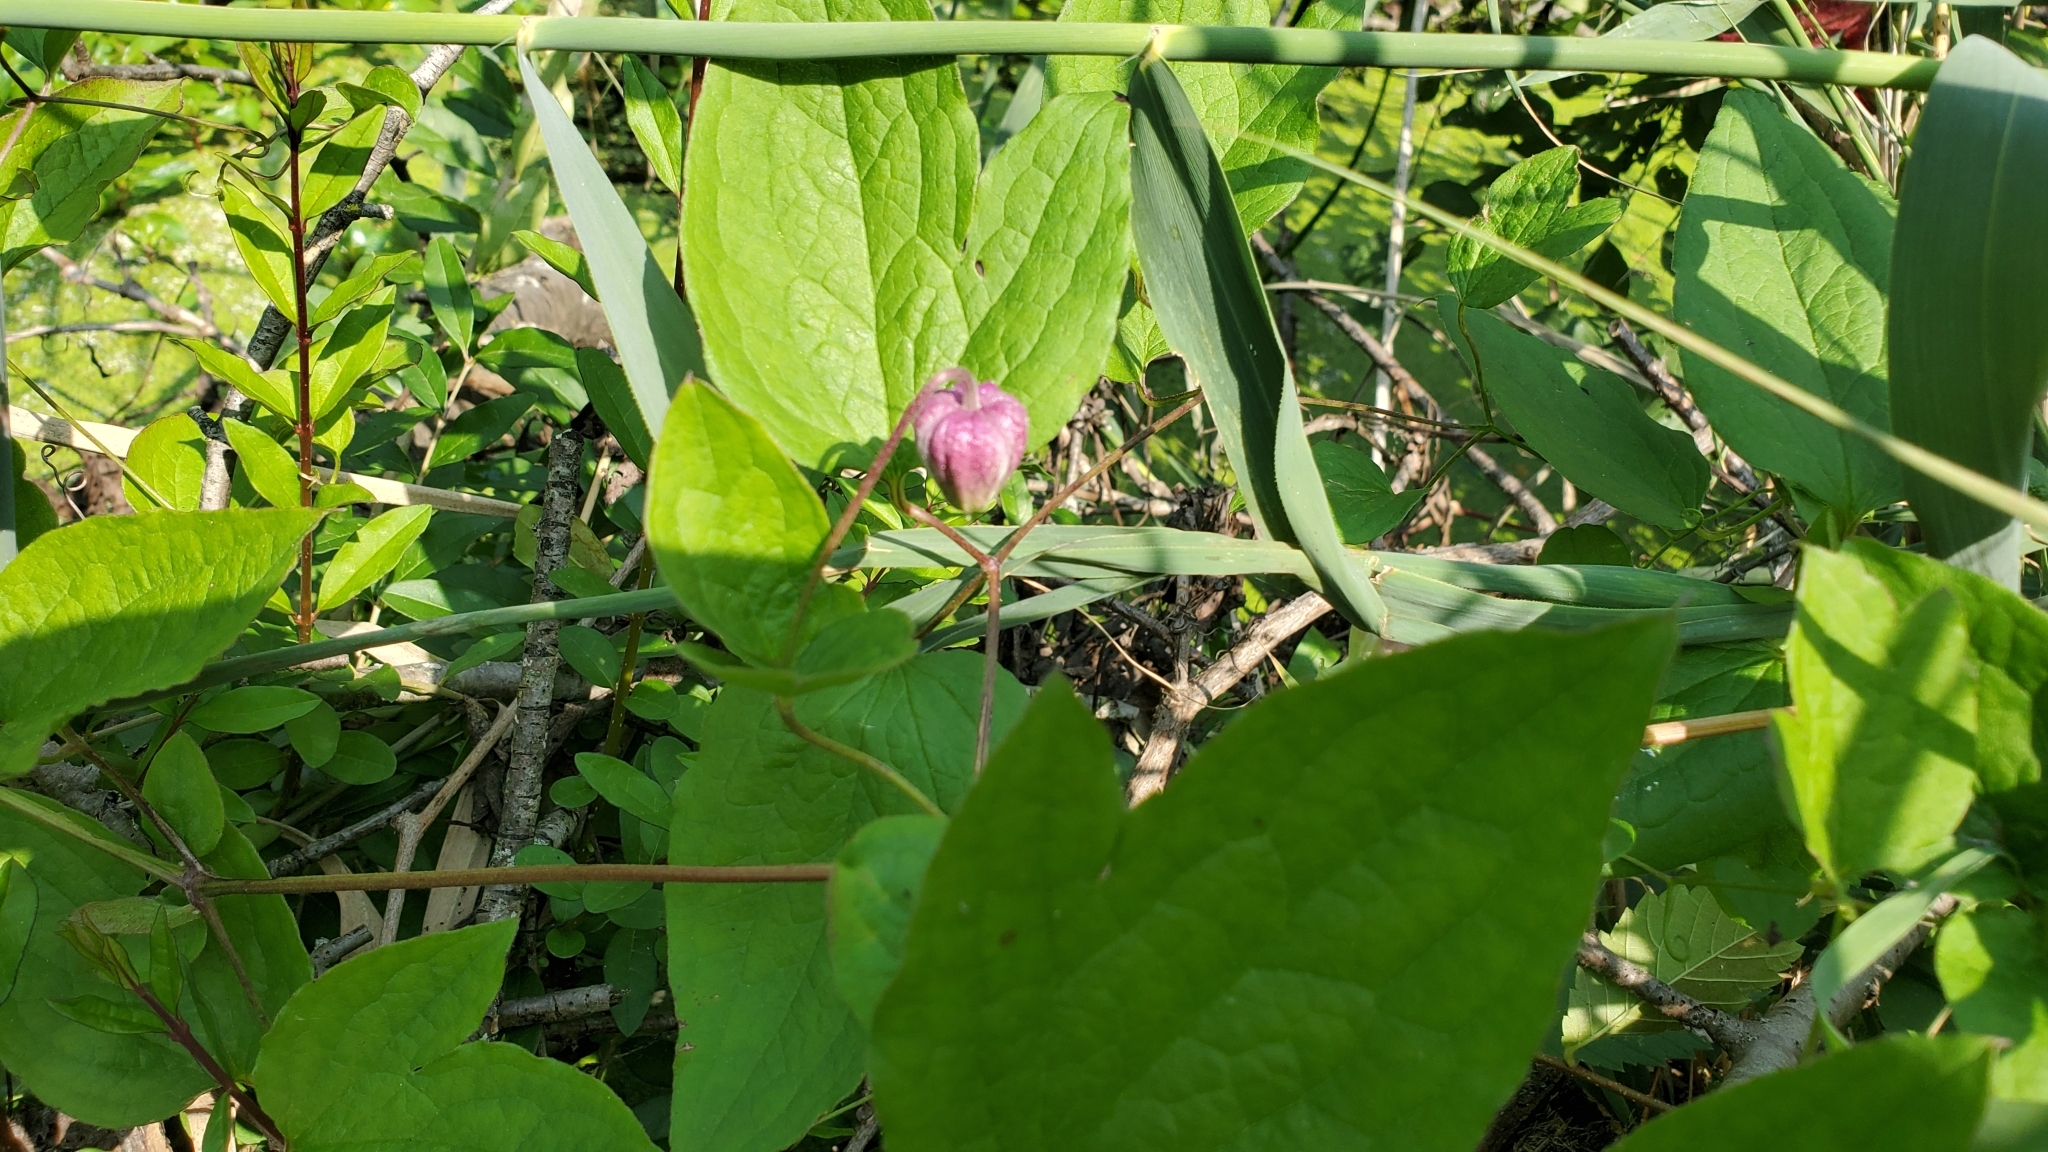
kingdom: Plantae
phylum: Tracheophyta
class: Magnoliopsida
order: Ranunculales
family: Ranunculaceae
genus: Clematis
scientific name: Clematis pitcheri
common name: Bellflower clematis
